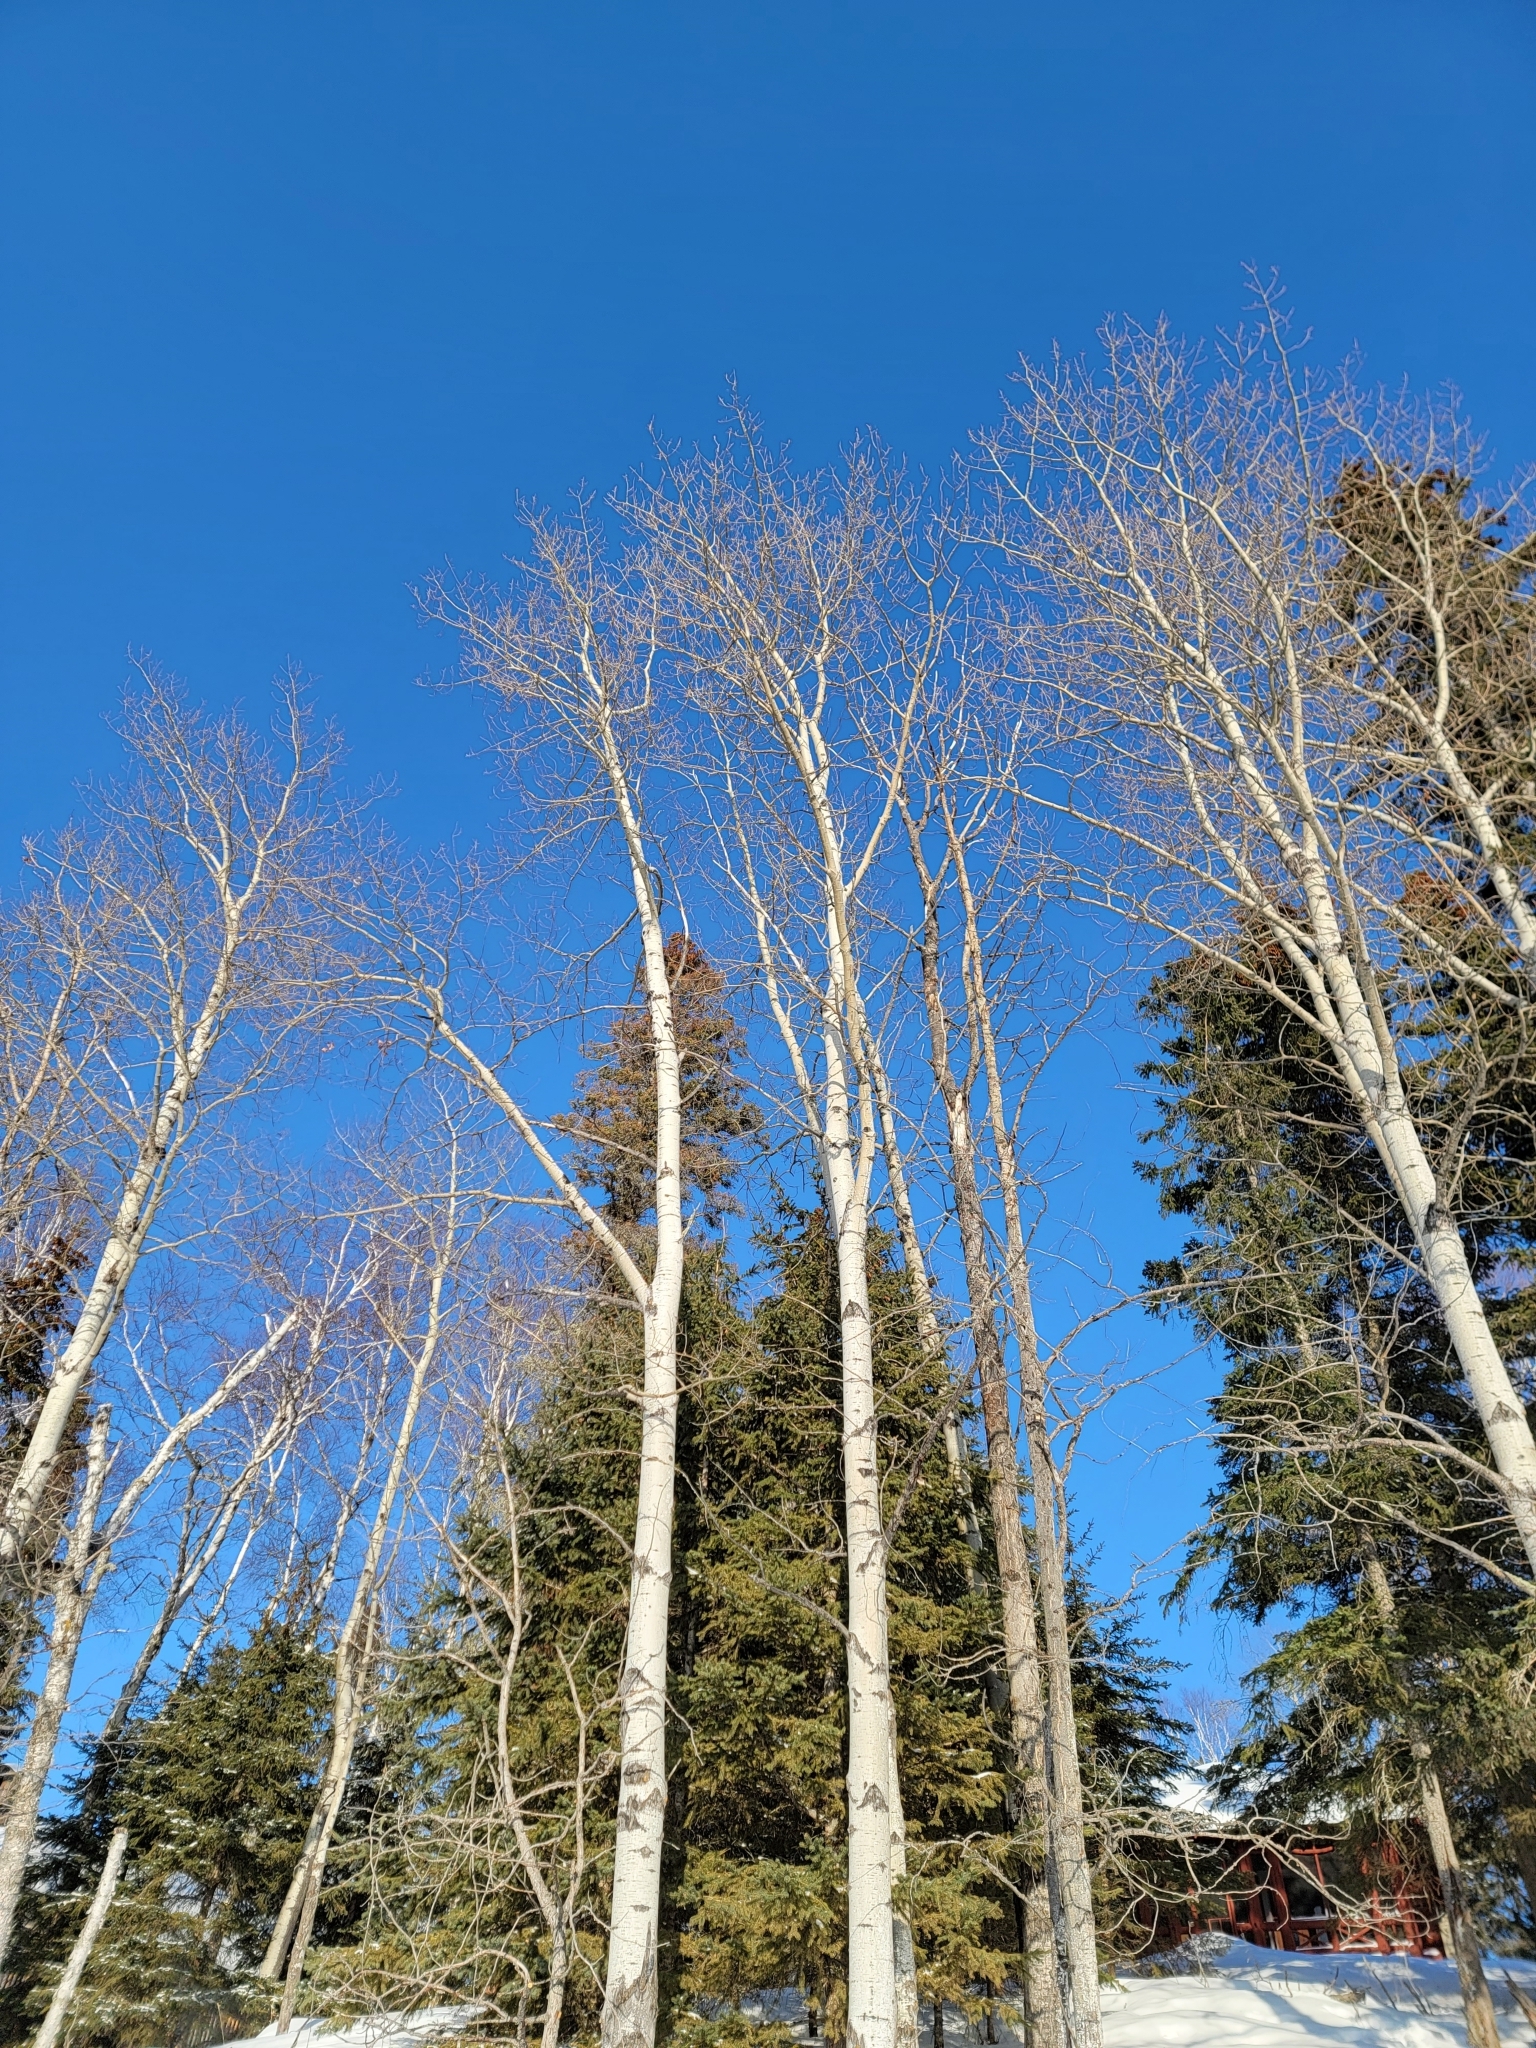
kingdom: Plantae
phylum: Tracheophyta
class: Magnoliopsida
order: Malpighiales
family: Salicaceae
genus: Populus
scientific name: Populus tremuloides
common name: Quaking aspen
